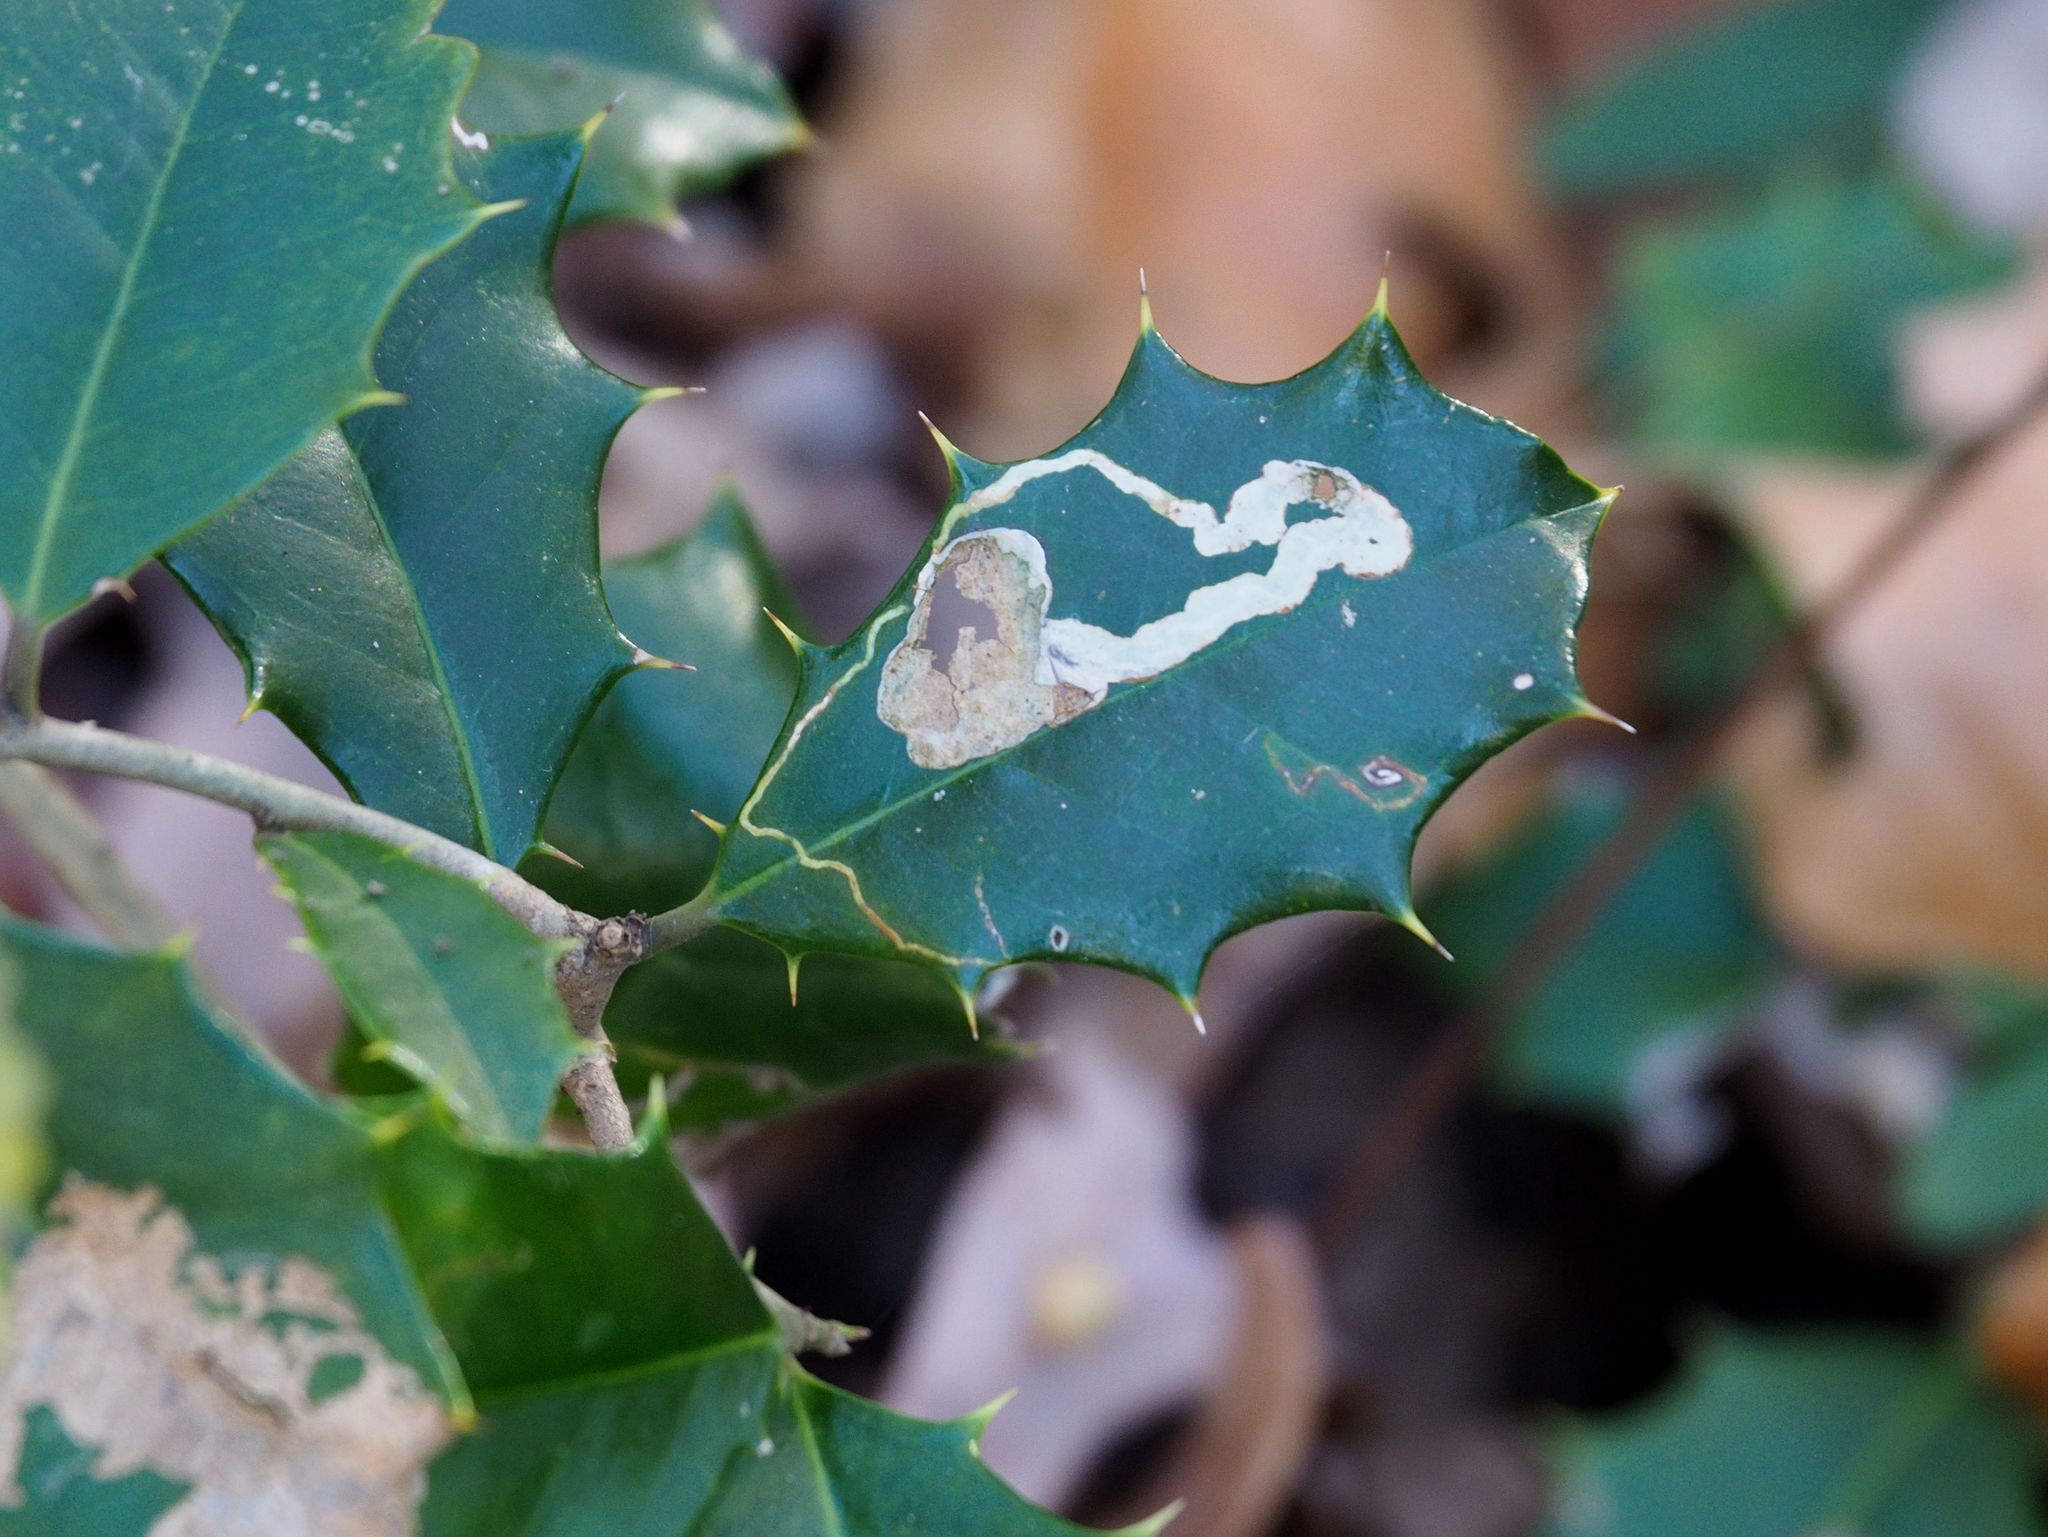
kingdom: Animalia
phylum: Arthropoda
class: Insecta
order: Diptera
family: Agromyzidae
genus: Phytomyza
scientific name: Phytomyza ilicicola
